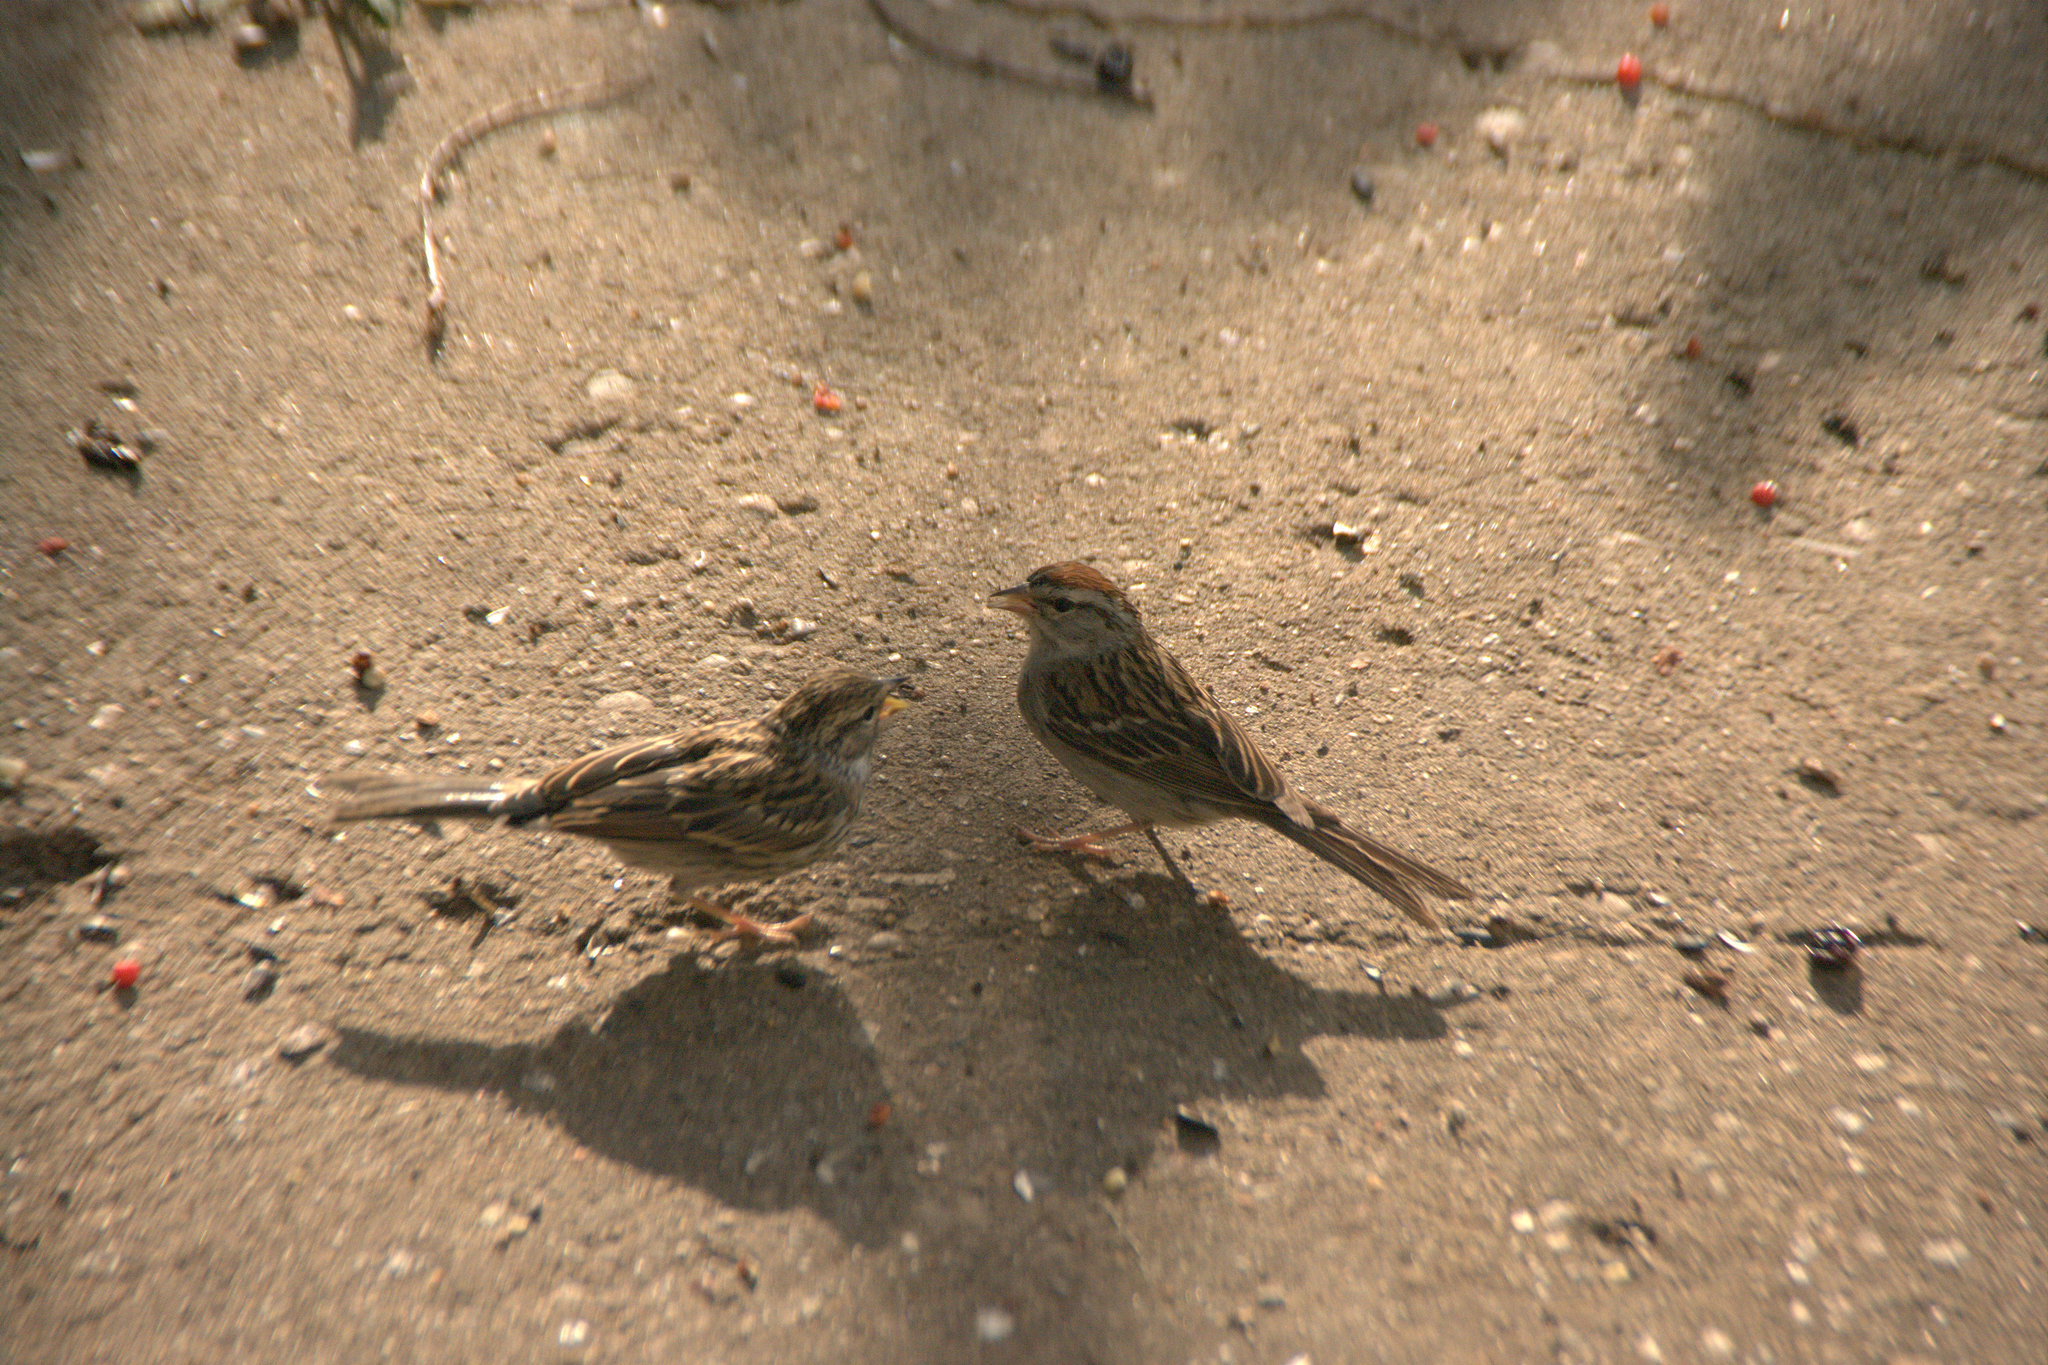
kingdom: Animalia
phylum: Chordata
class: Aves
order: Passeriformes
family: Passerellidae
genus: Spizella
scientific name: Spizella passerina
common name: Chipping sparrow
